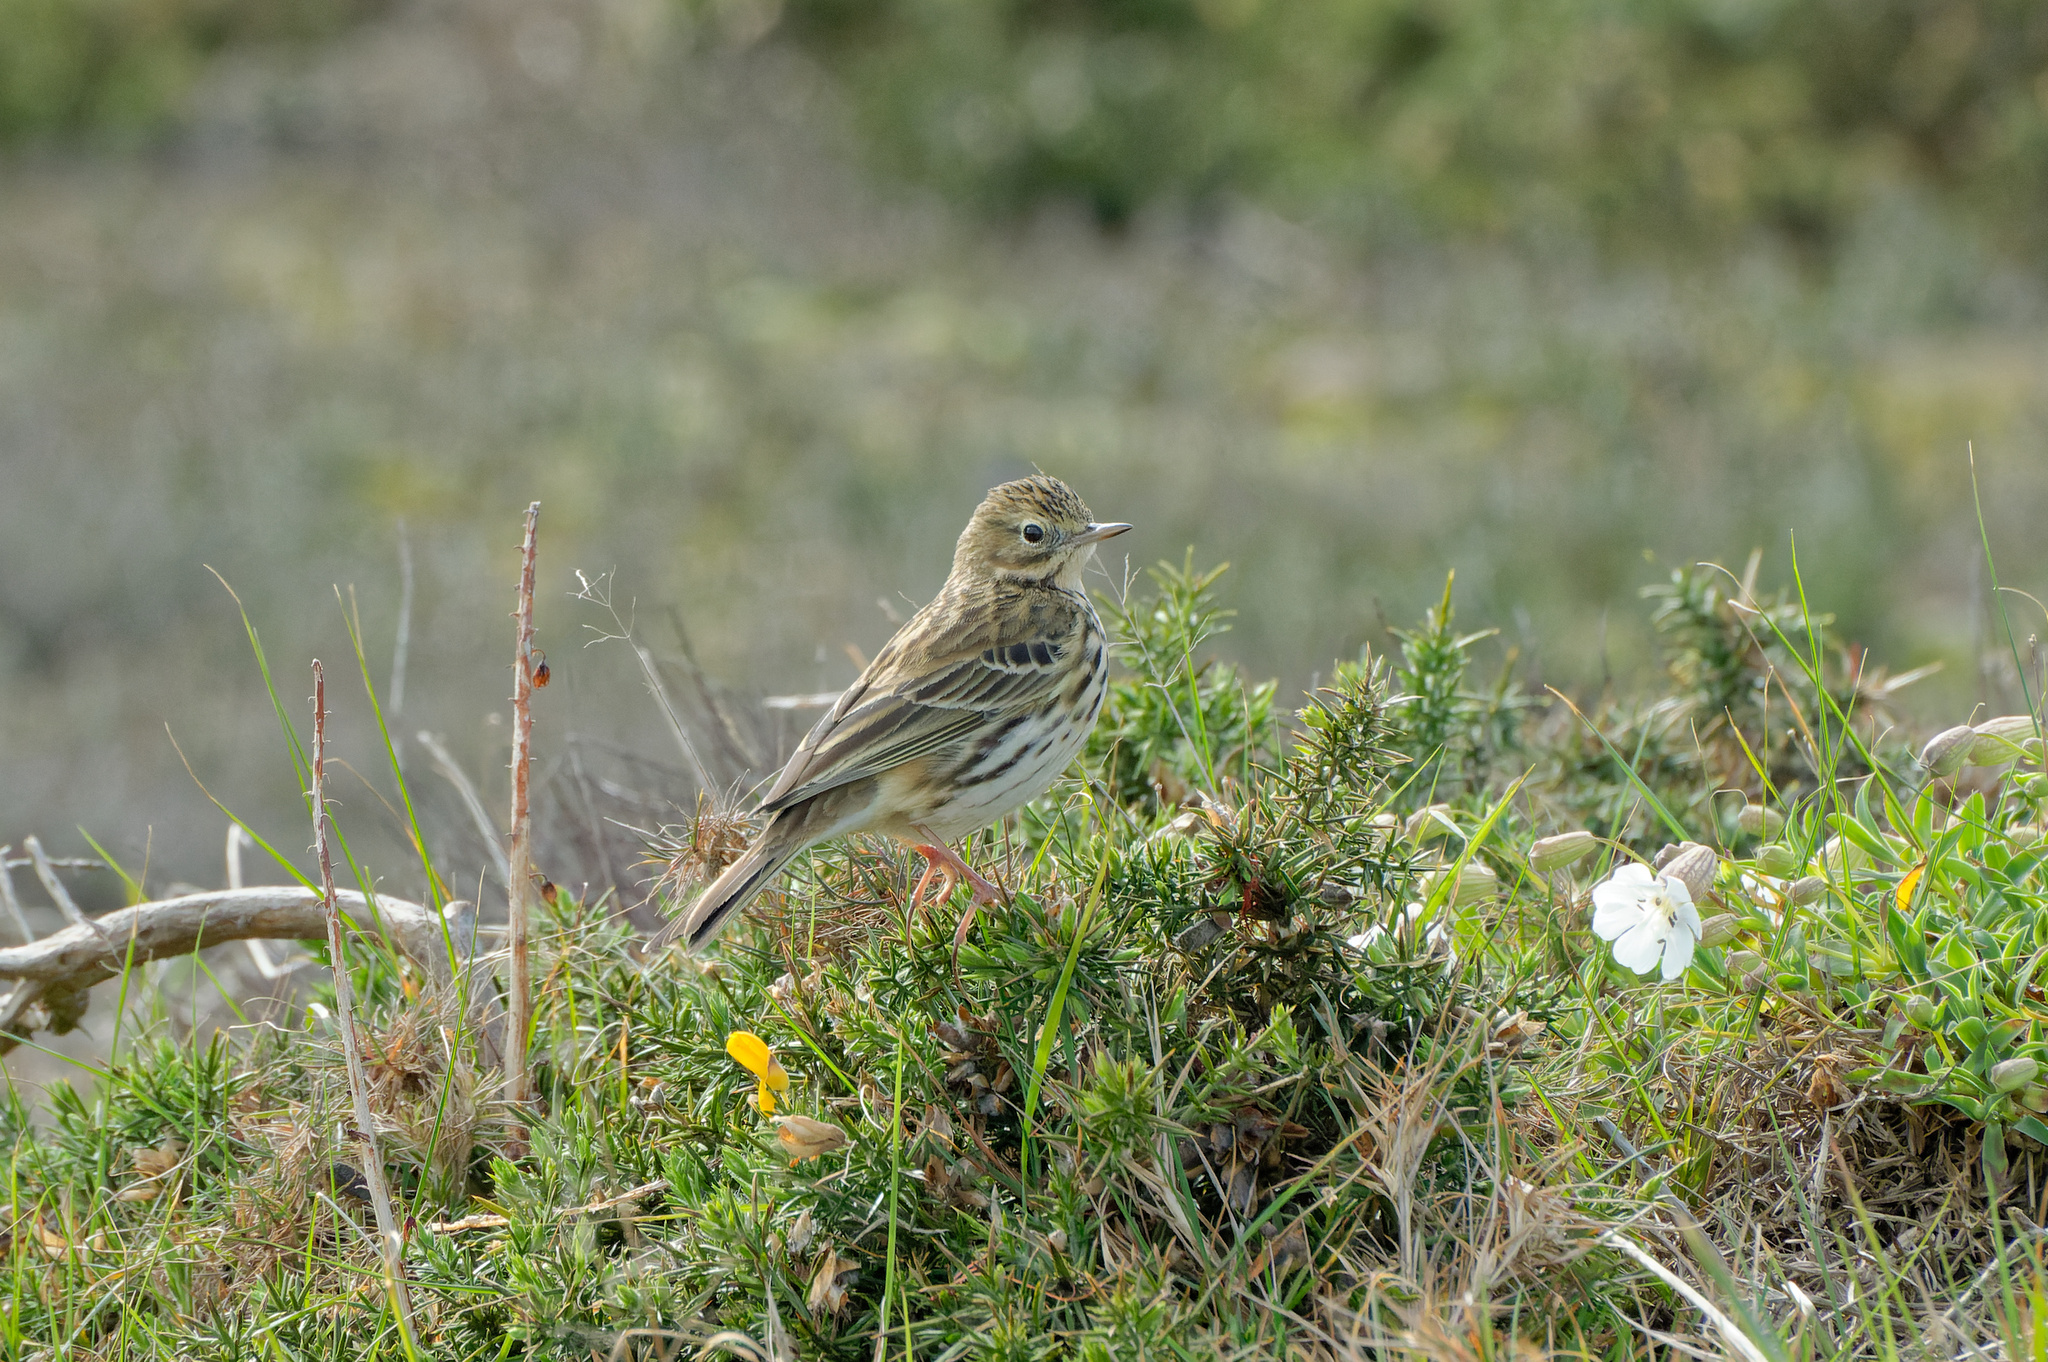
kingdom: Animalia
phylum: Chordata
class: Aves
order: Passeriformes
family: Motacillidae
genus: Anthus
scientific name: Anthus pratensis
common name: Meadow pipit
